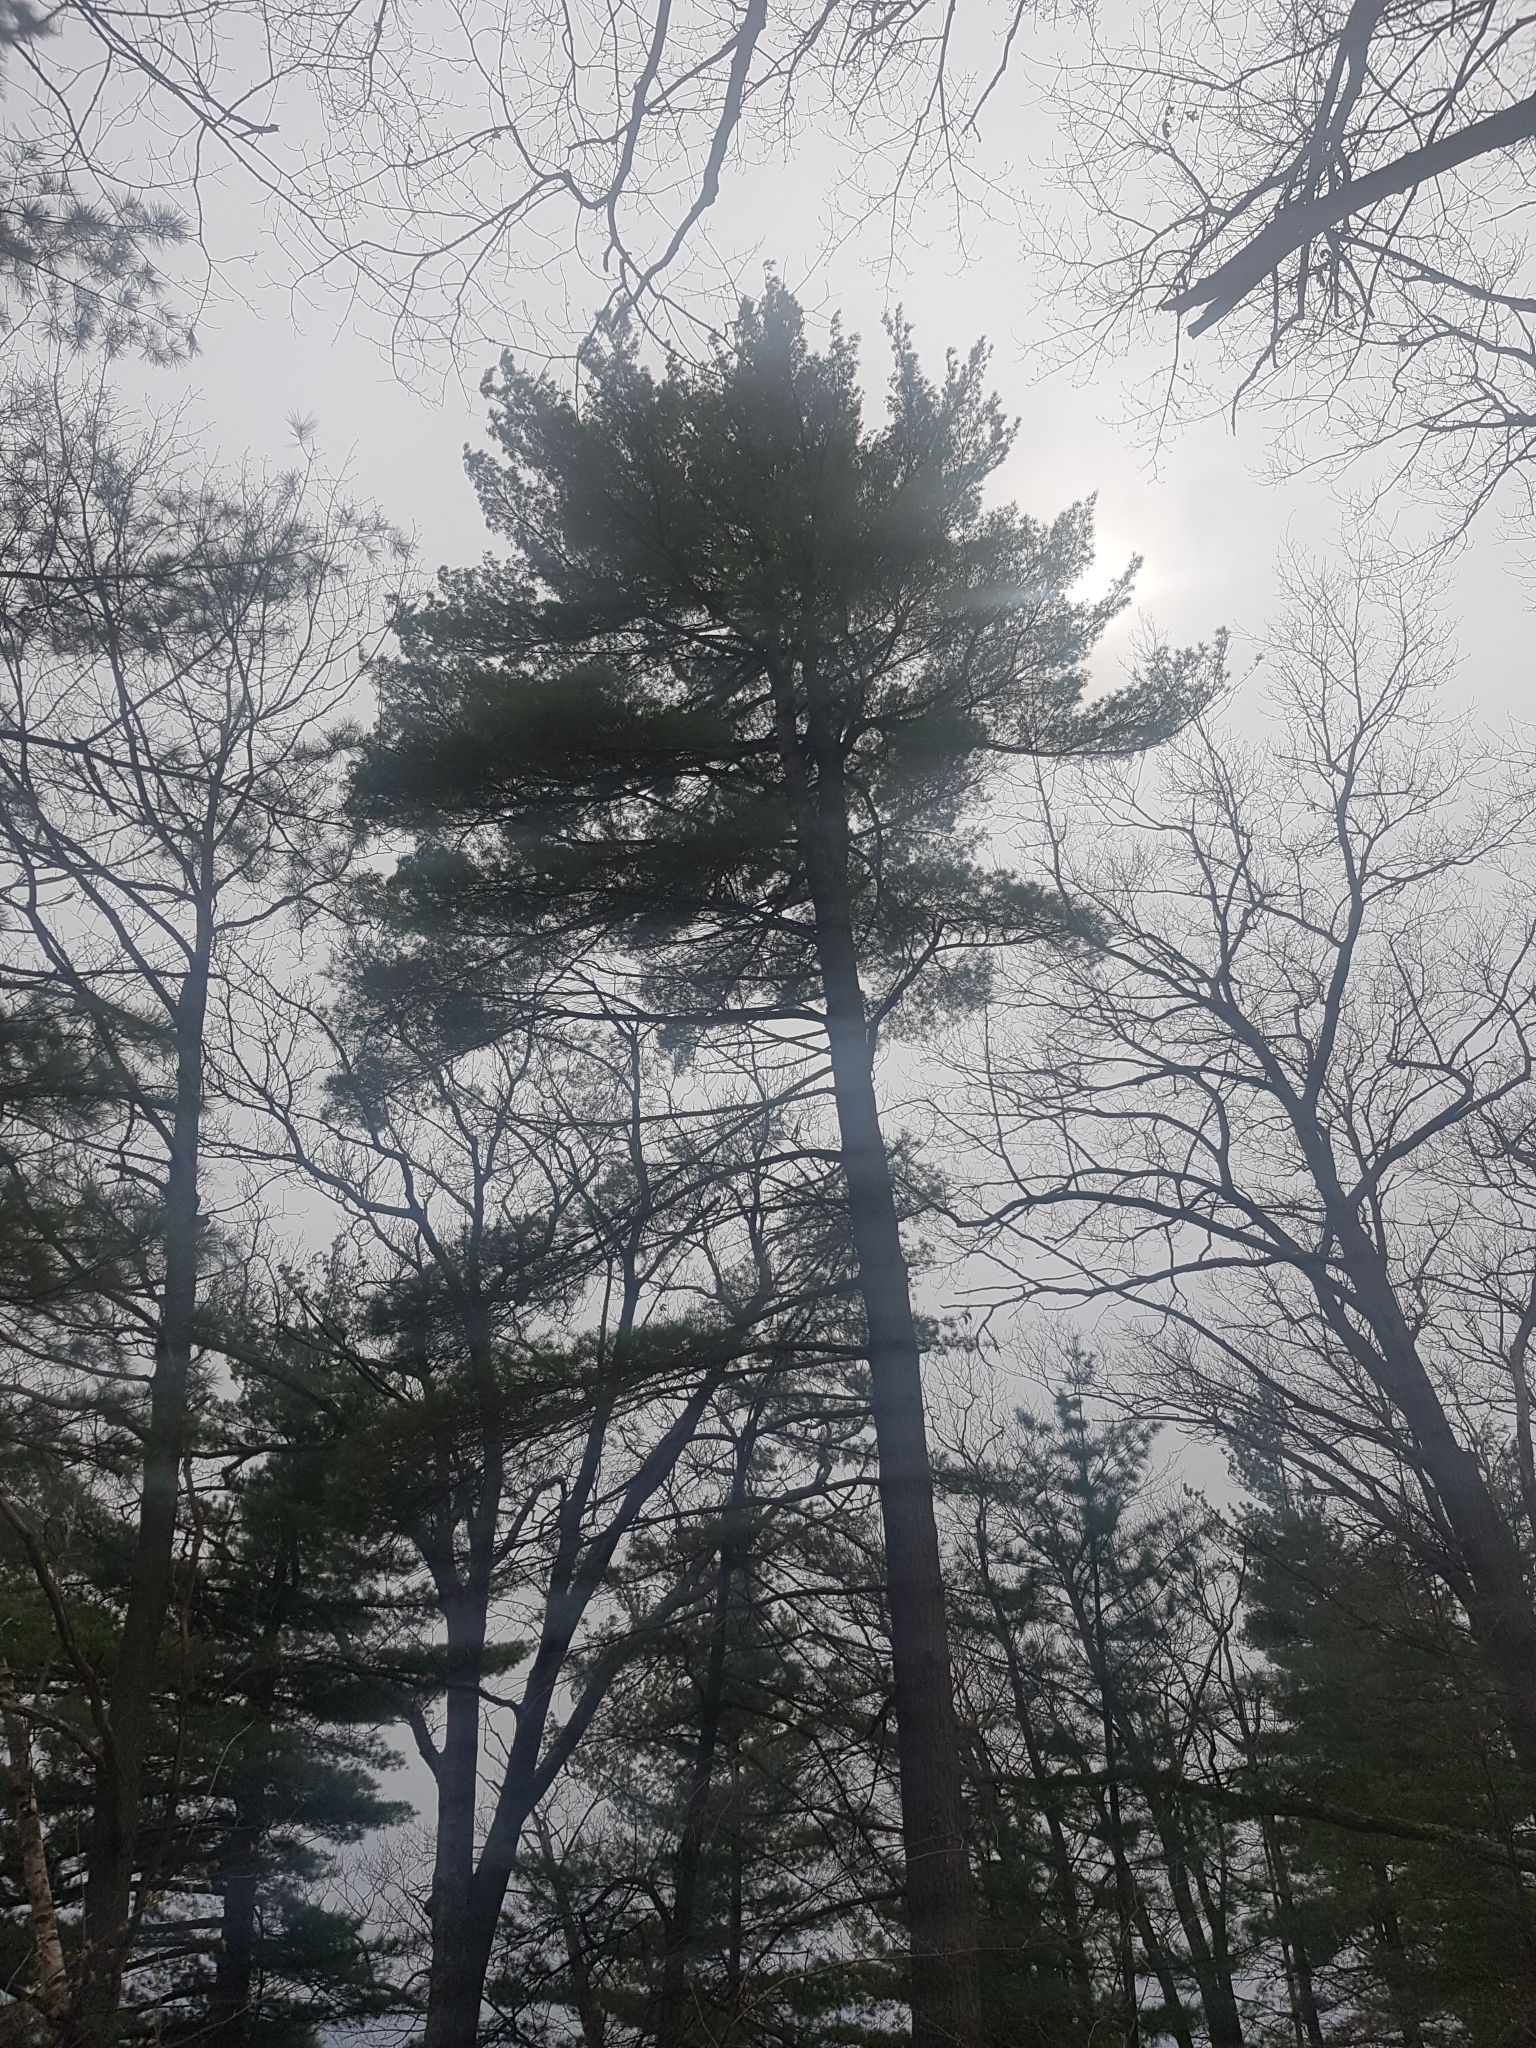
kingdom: Plantae
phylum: Tracheophyta
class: Pinopsida
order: Pinales
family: Pinaceae
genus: Pinus
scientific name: Pinus strobus
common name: Weymouth pine
